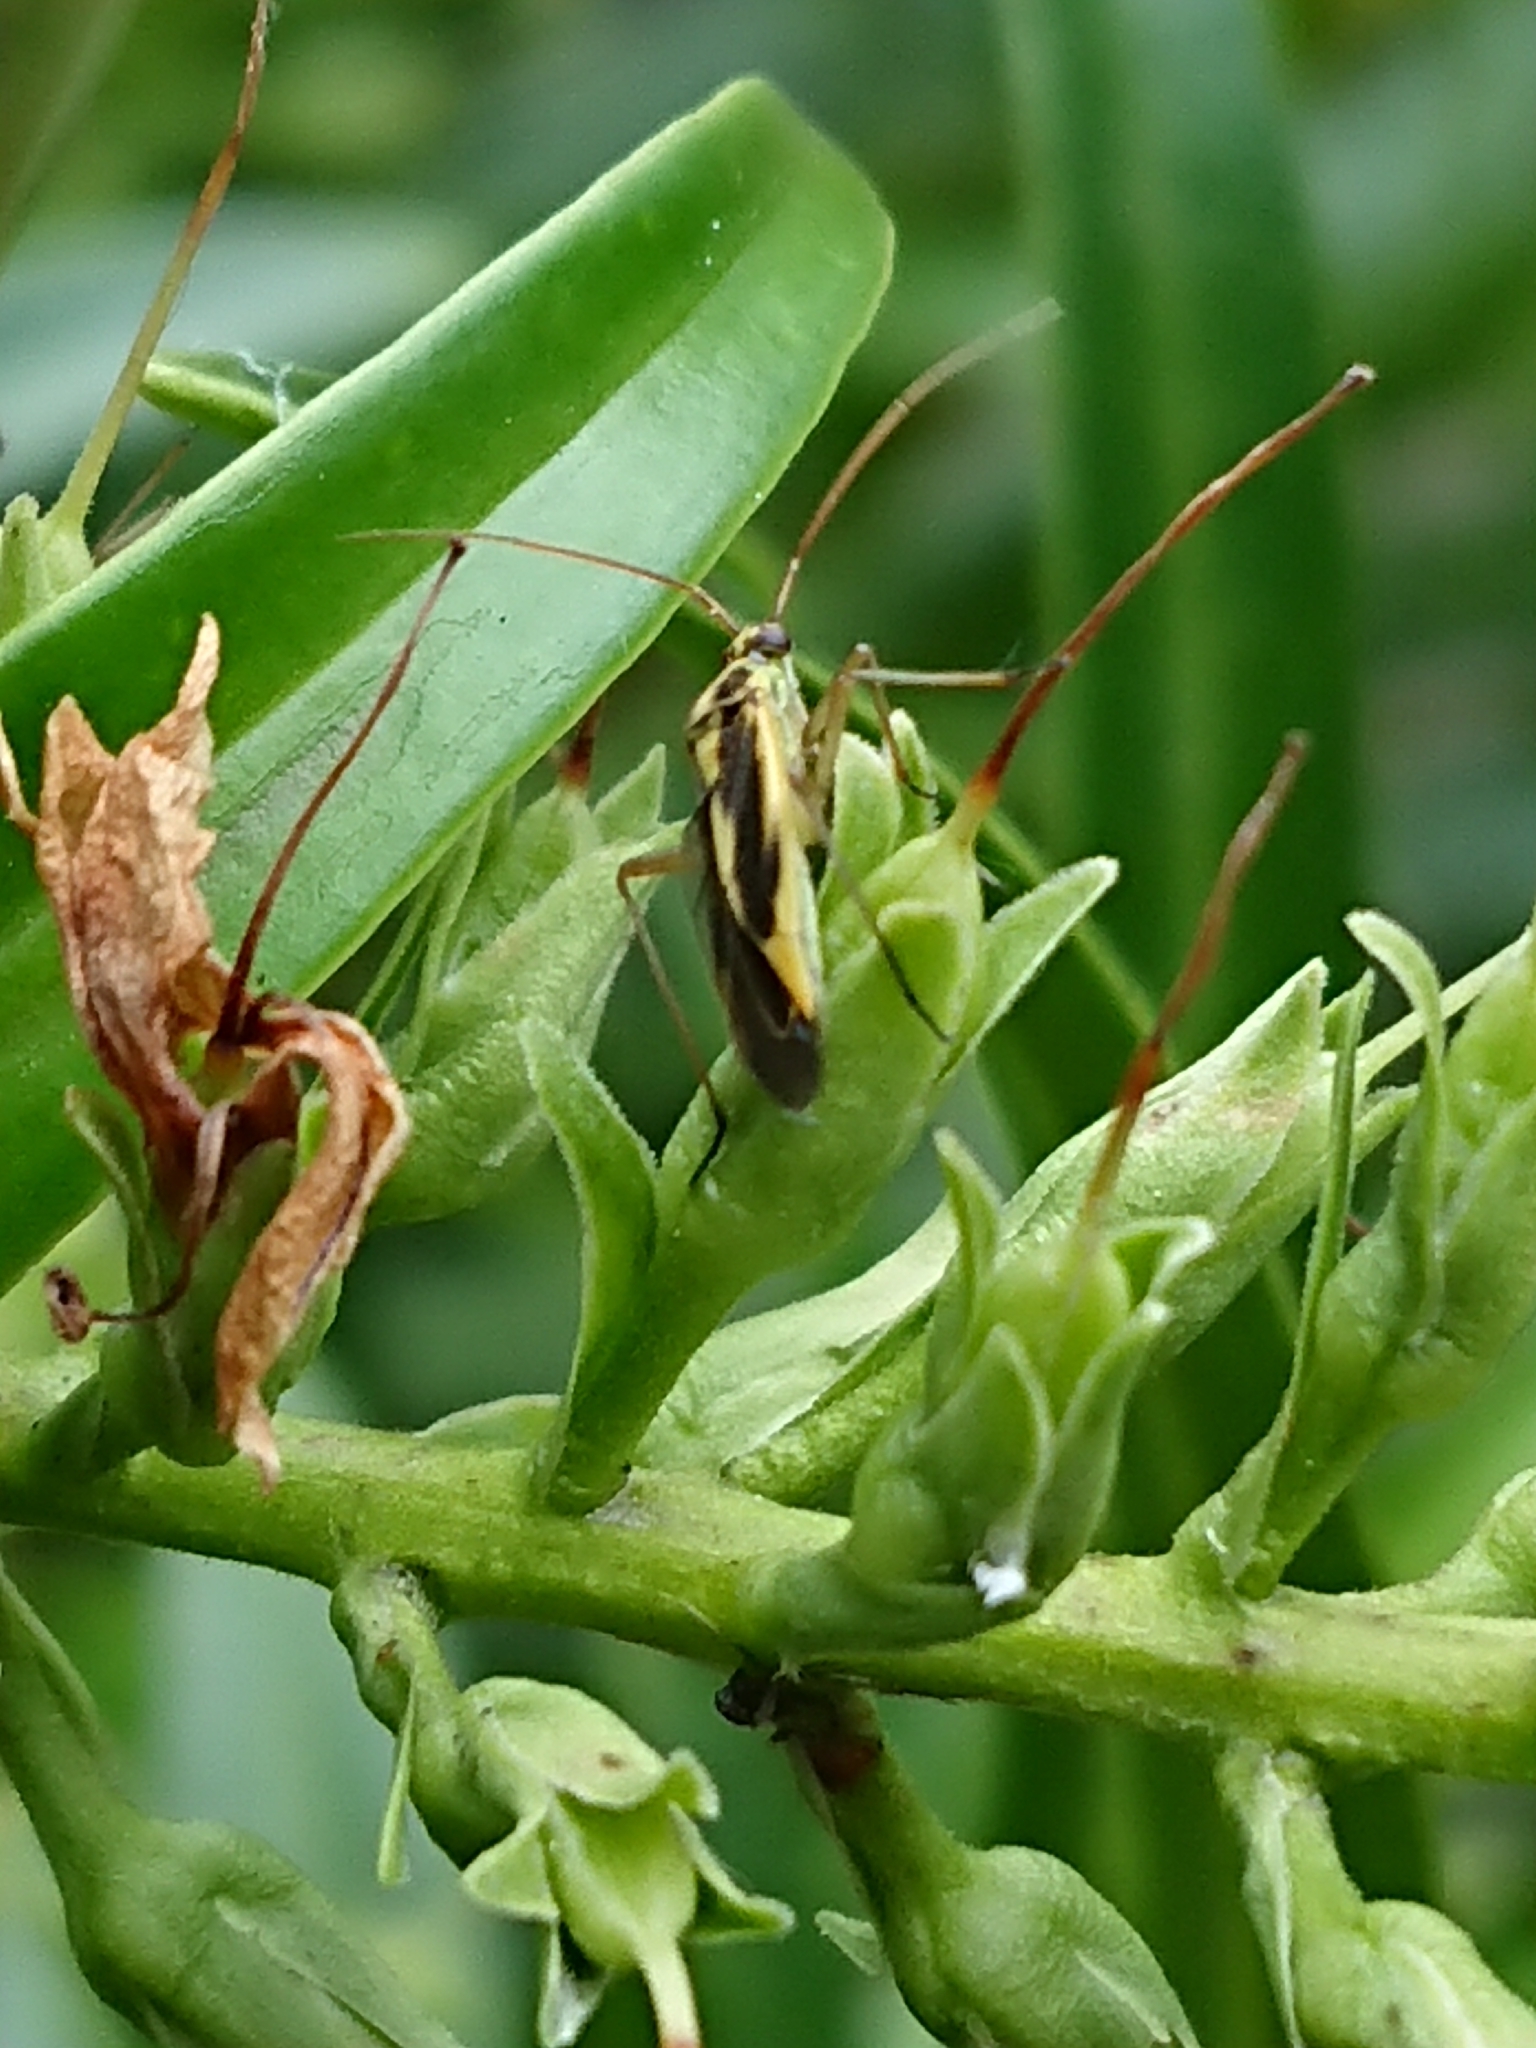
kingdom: Animalia
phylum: Arthropoda
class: Insecta
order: Hemiptera
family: Miridae
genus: Stenotus
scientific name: Stenotus binotatus
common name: Plant bug
